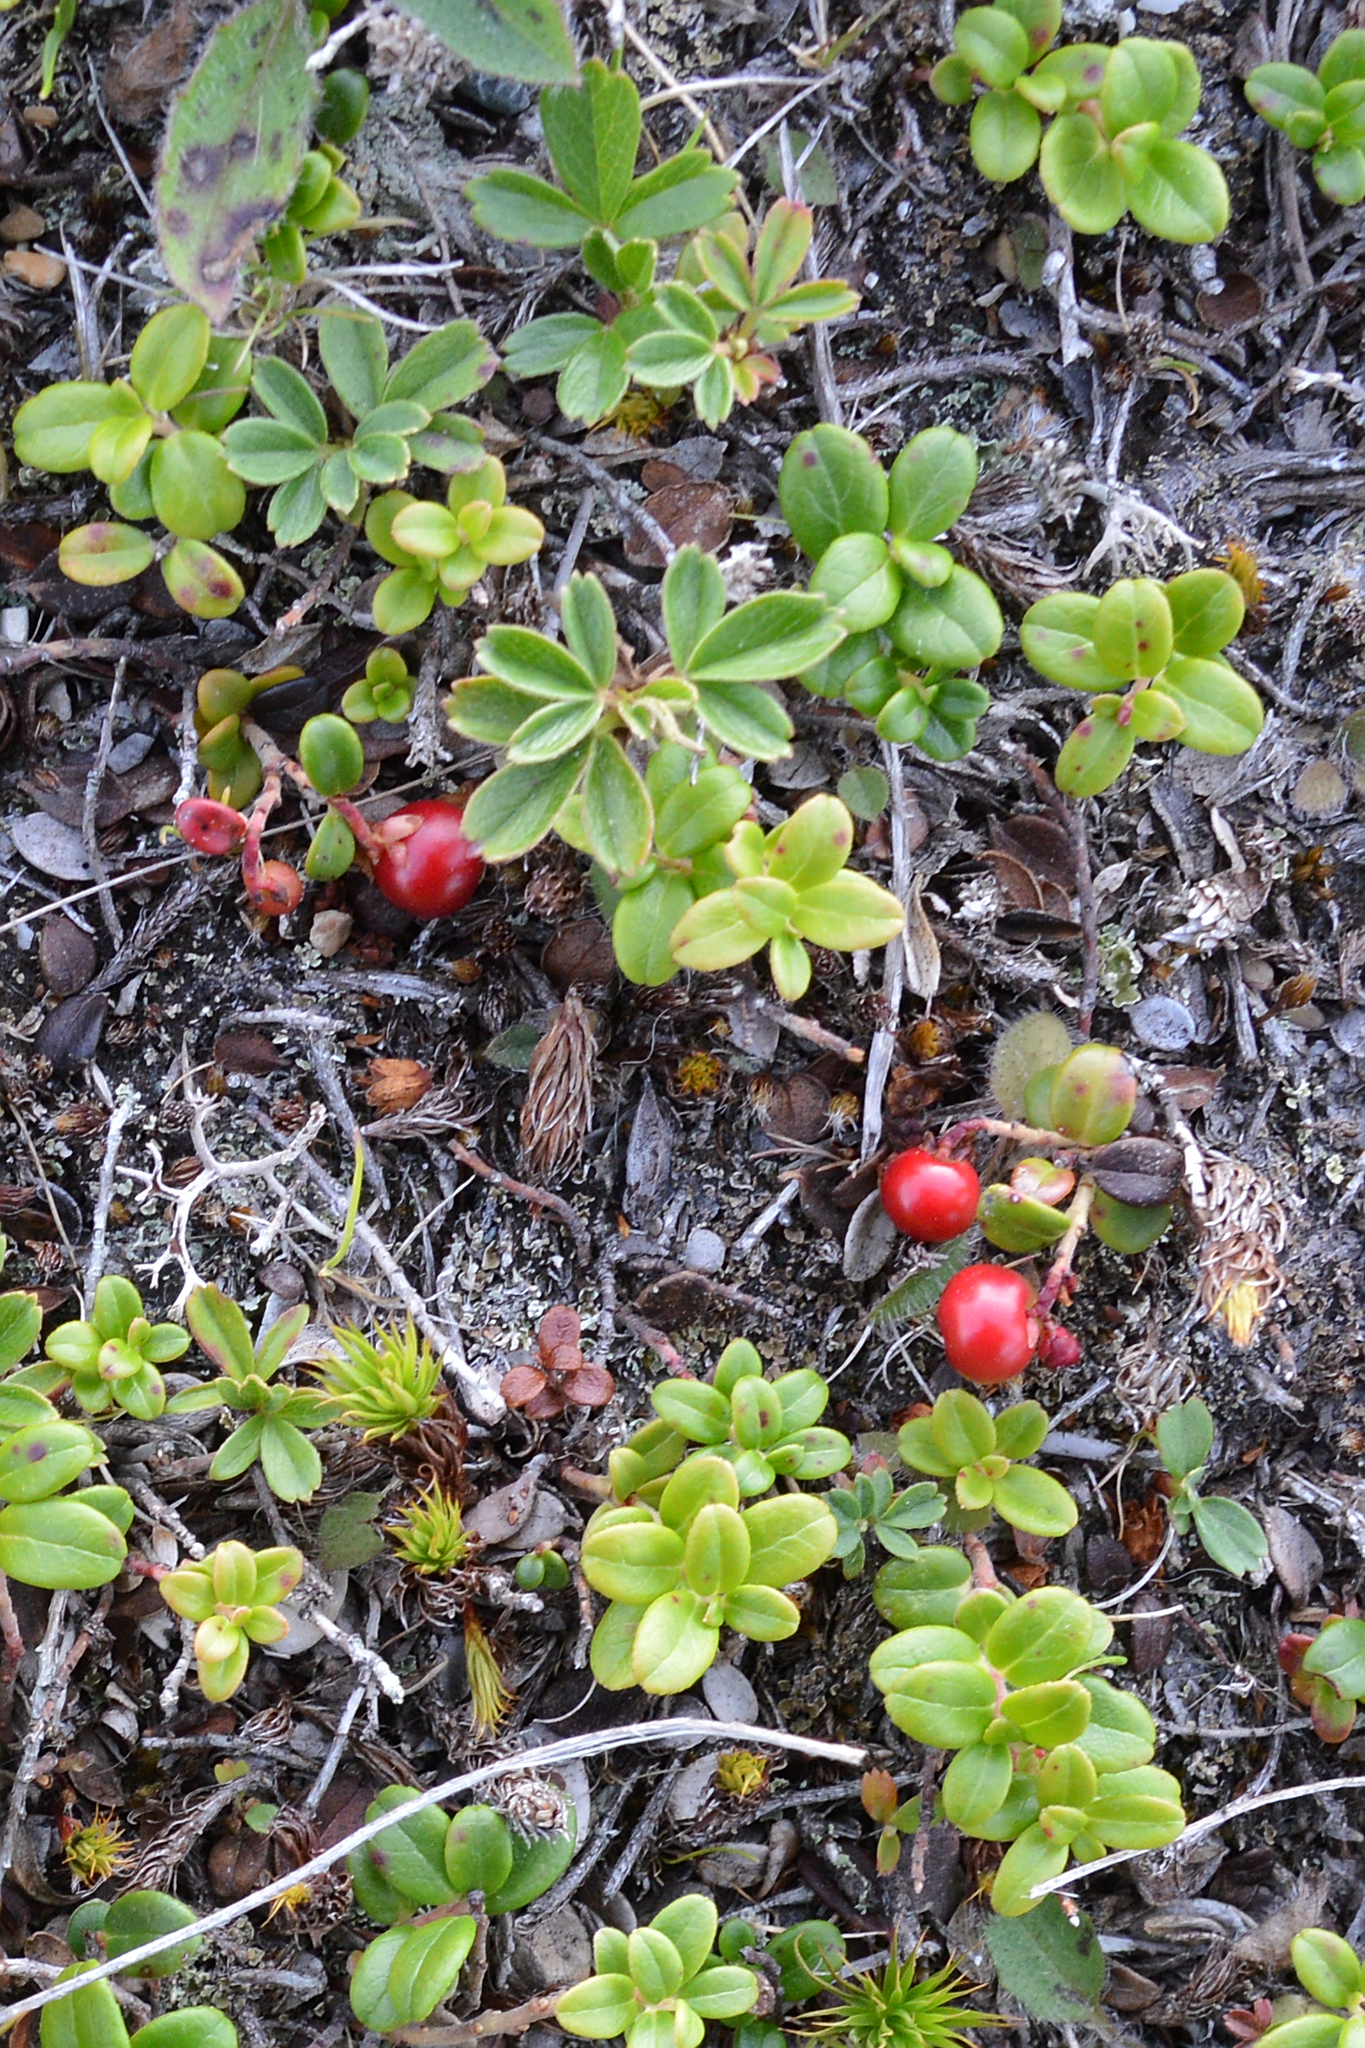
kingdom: Plantae
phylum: Tracheophyta
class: Magnoliopsida
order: Ericales
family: Ericaceae
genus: Vaccinium
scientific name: Vaccinium vitis-idaea
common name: Cowberry
